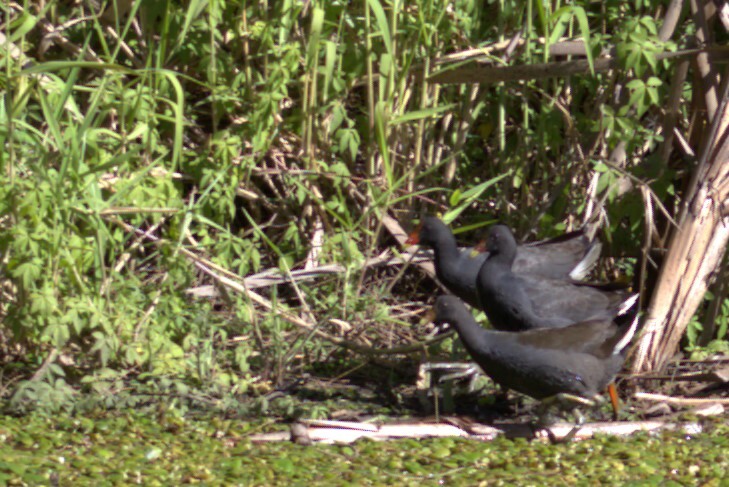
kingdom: Animalia
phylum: Chordata
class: Aves
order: Gruiformes
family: Rallidae
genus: Gallinula
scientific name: Gallinula tenebrosa
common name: Dusky moorhen
